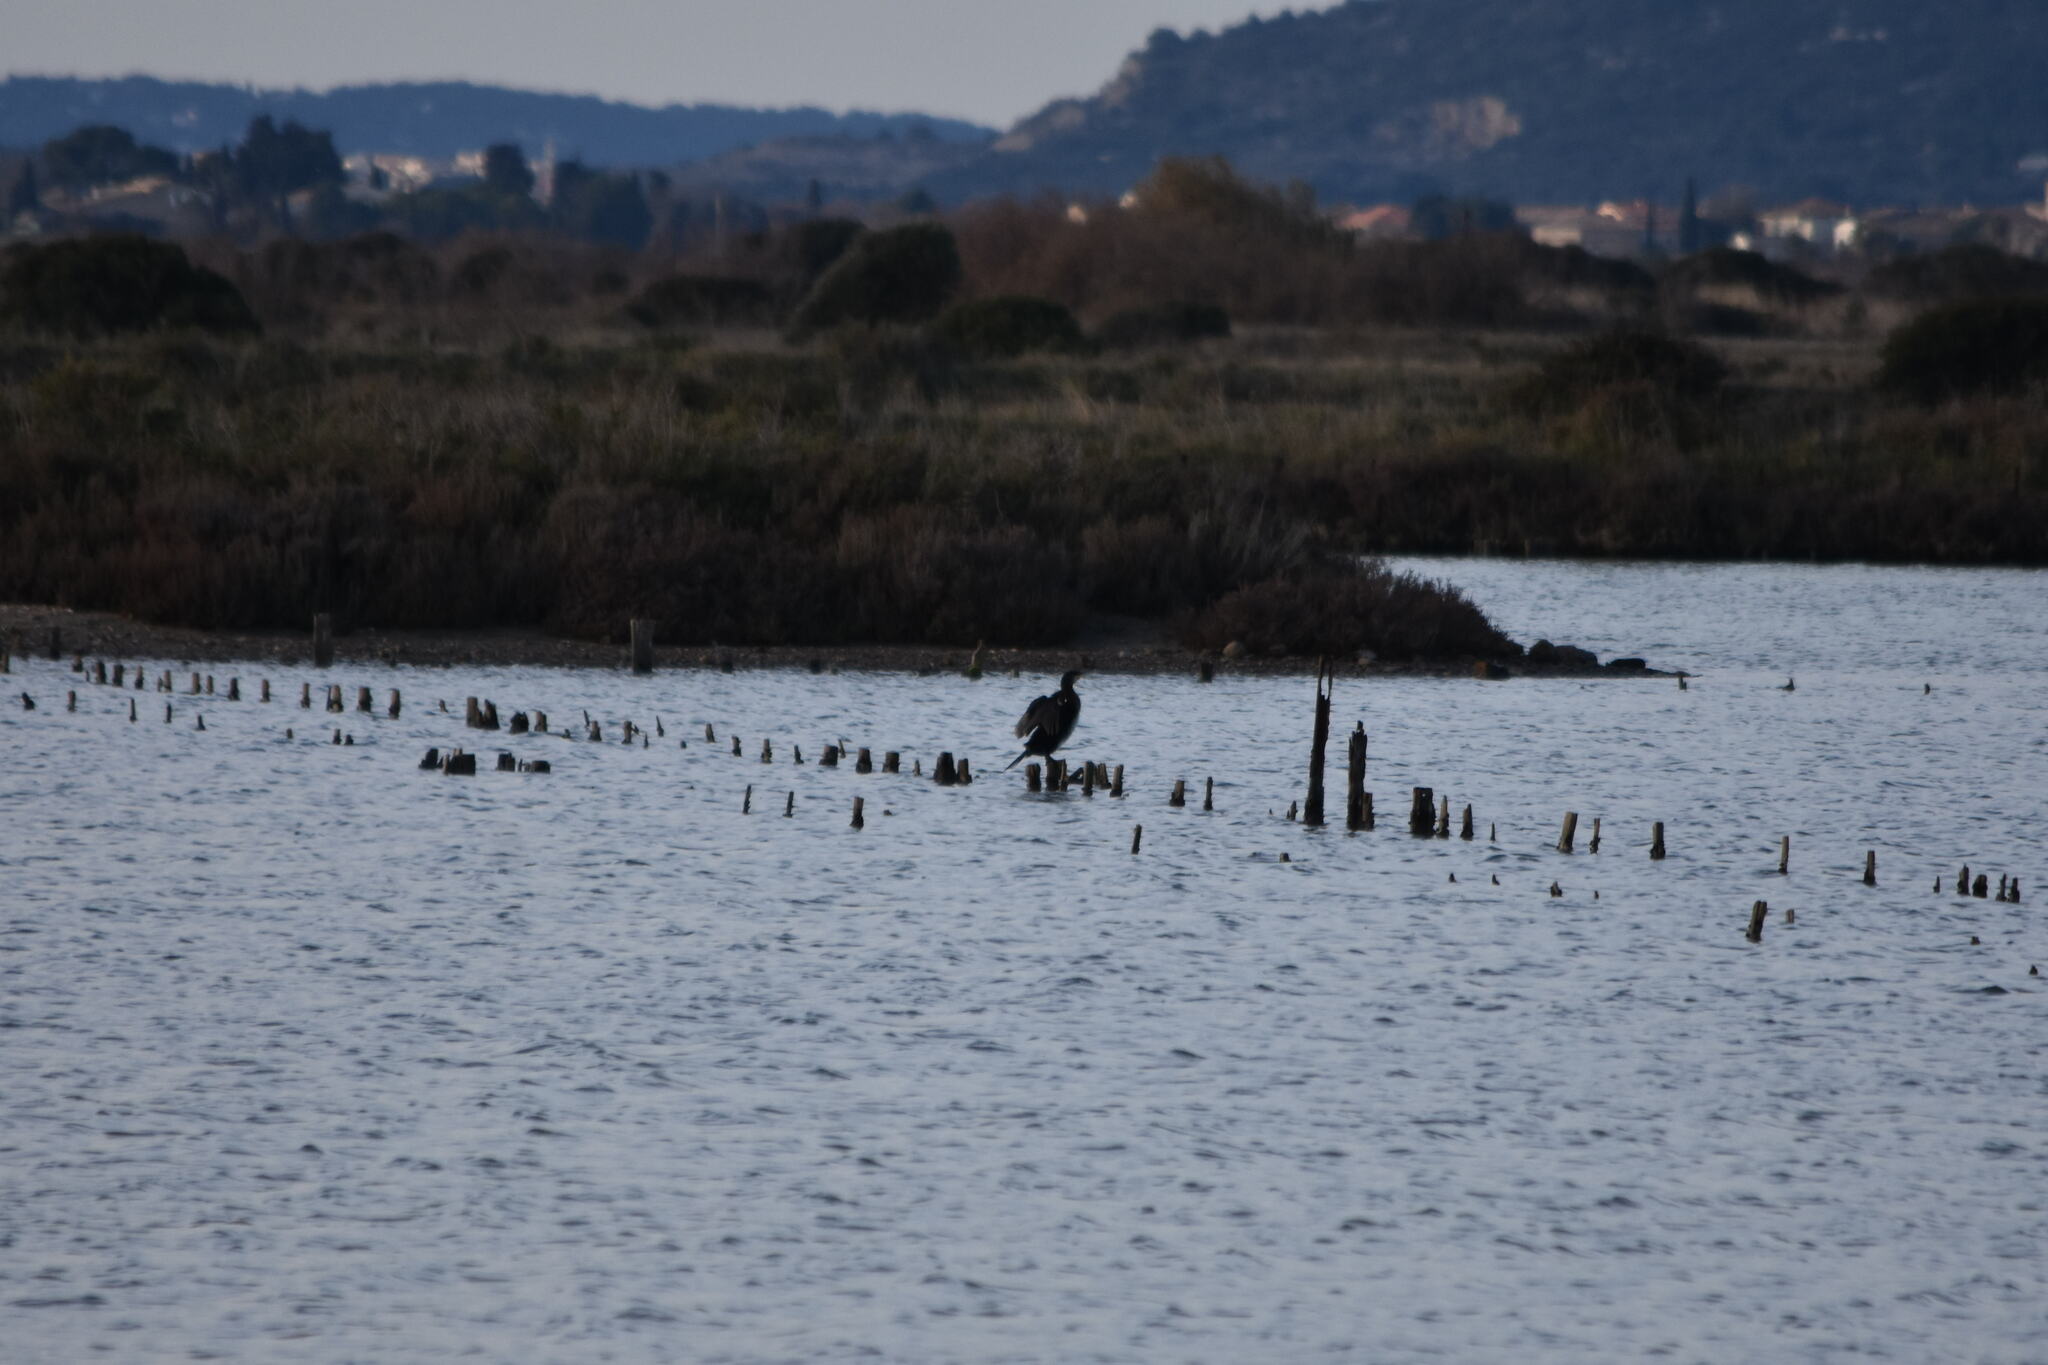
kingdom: Animalia
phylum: Chordata
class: Aves
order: Suliformes
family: Phalacrocoracidae
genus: Phalacrocorax
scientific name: Phalacrocorax carbo
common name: Great cormorant
